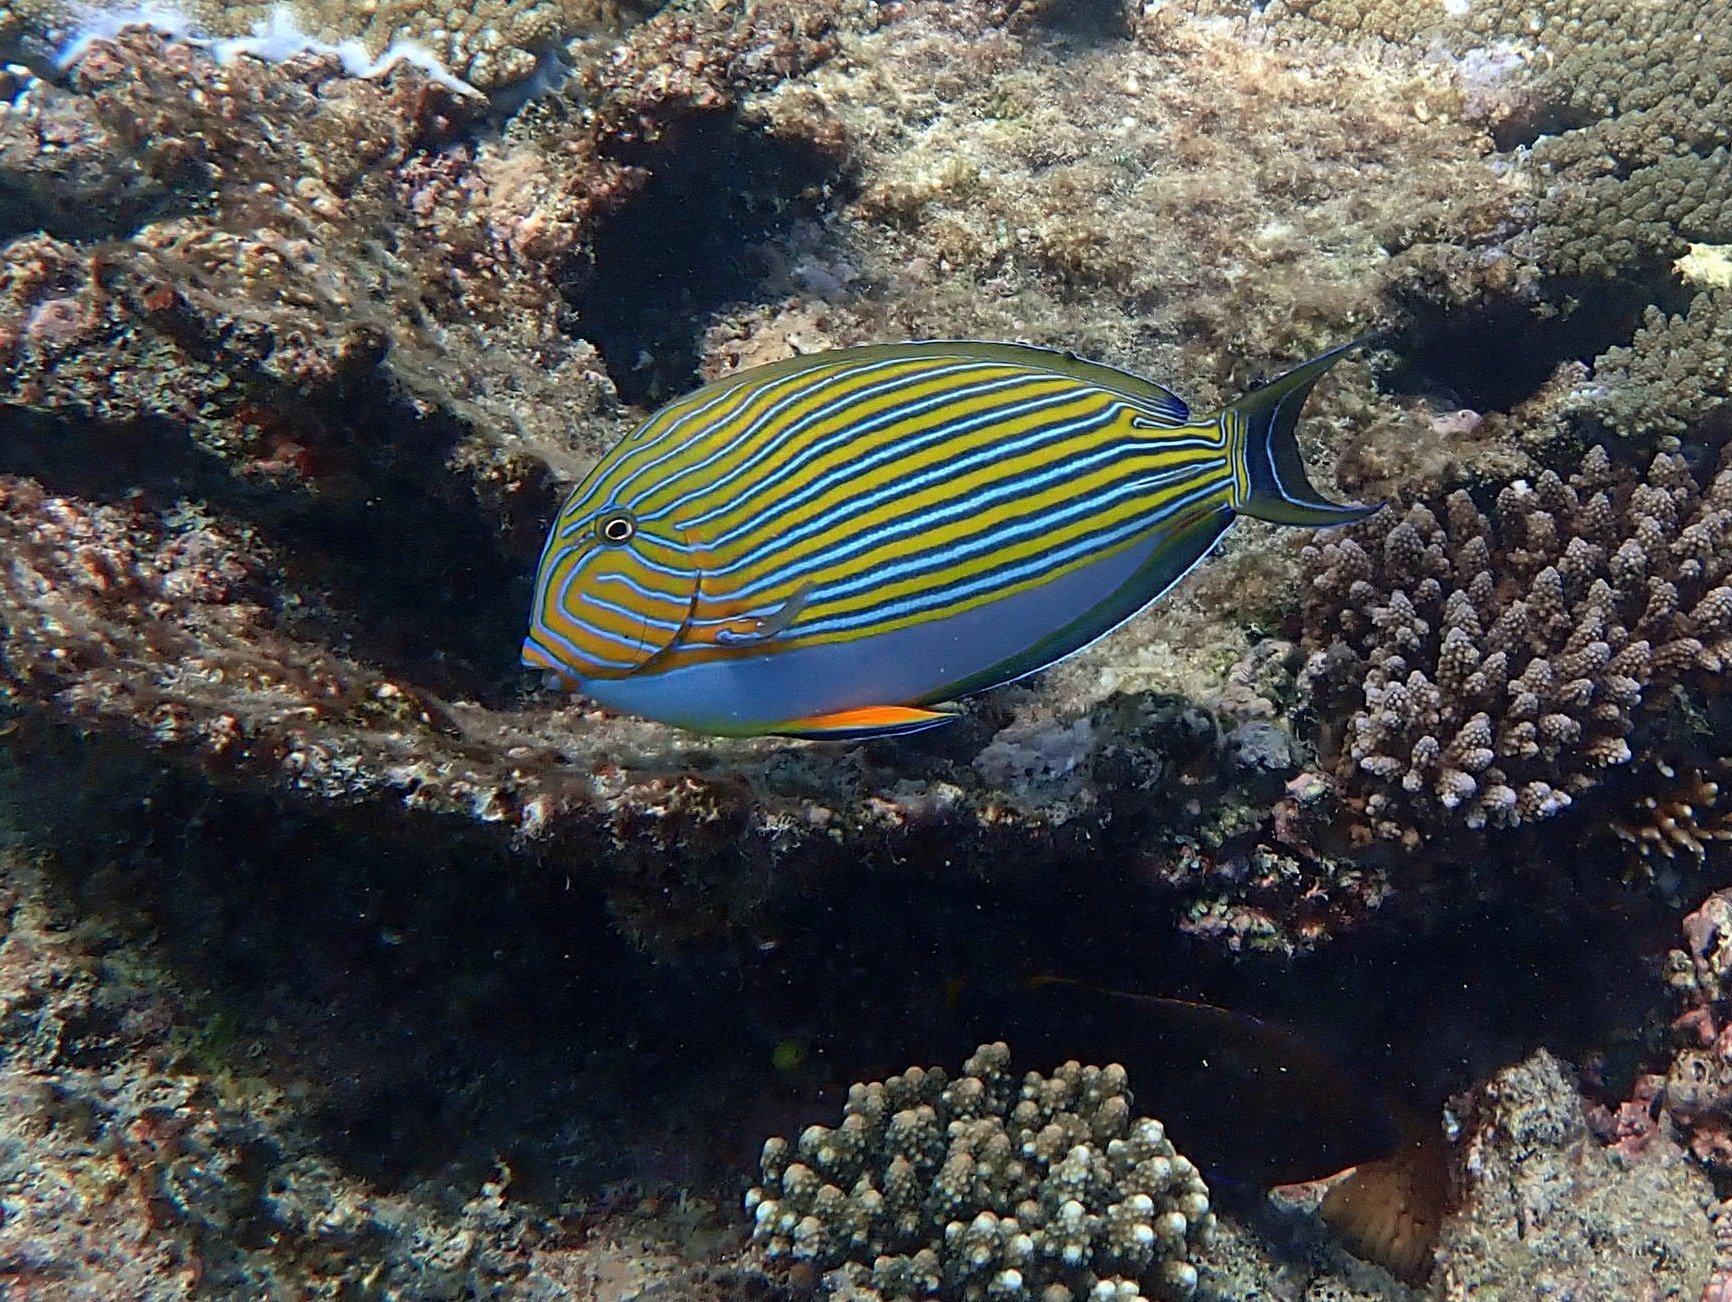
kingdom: Animalia
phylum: Chordata
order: Perciformes
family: Acanthuridae
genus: Acanthurus
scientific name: Acanthurus lineatus
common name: Striped surgeonfish
